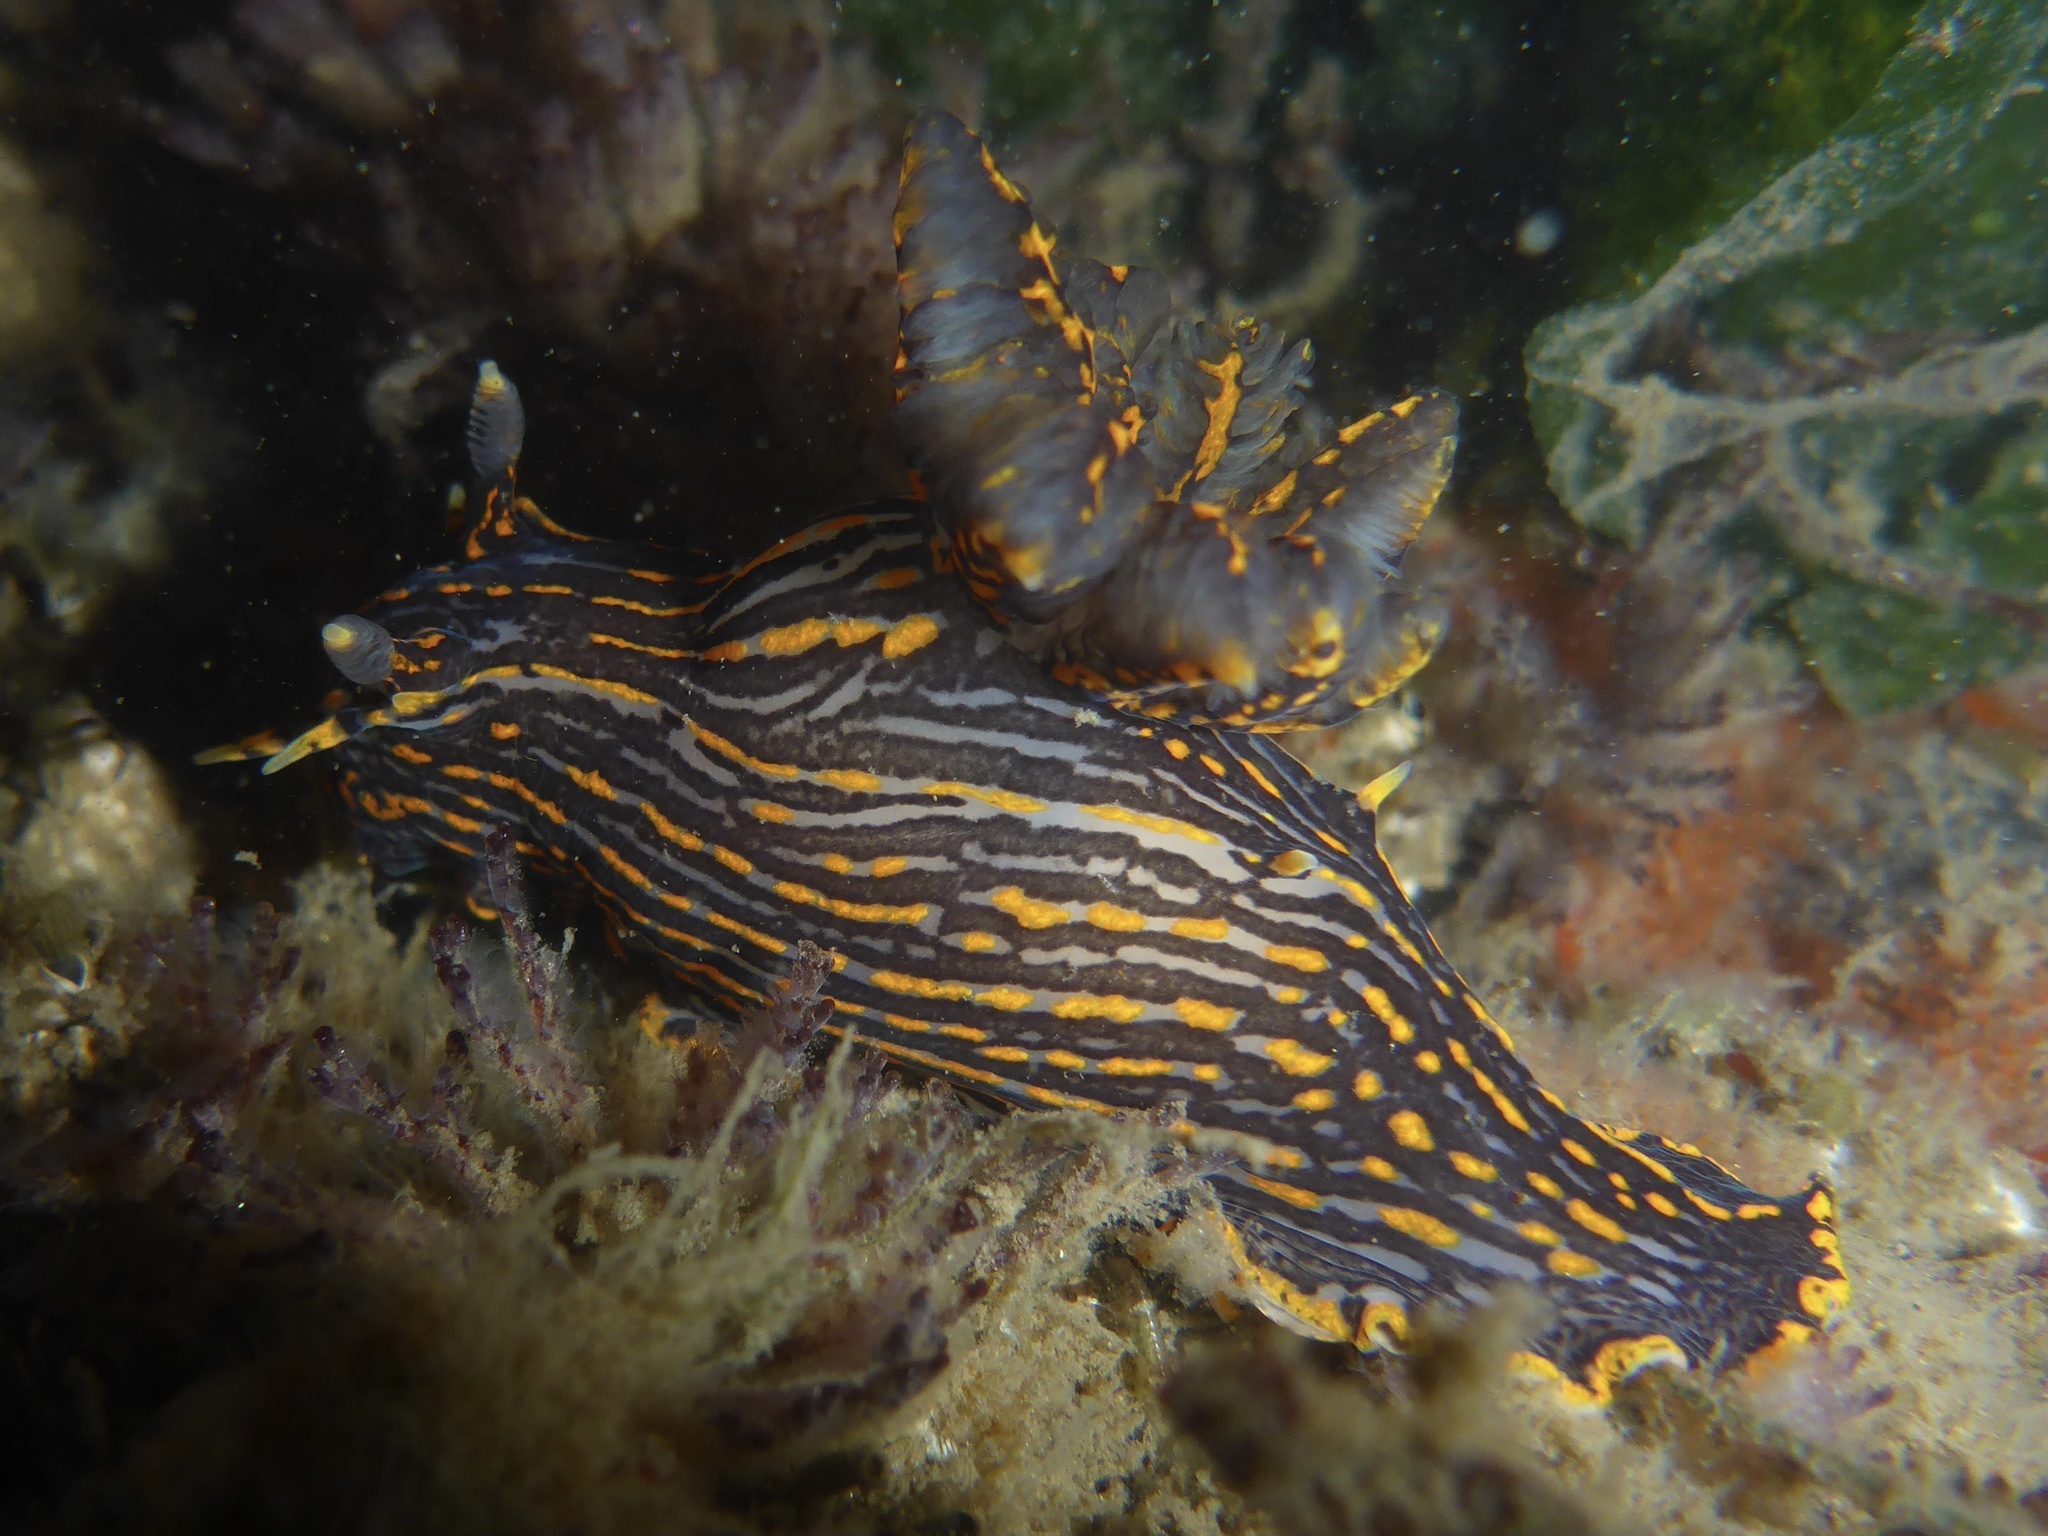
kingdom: Animalia
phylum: Mollusca
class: Gastropoda
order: Nudibranchia
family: Polyceridae
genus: Polycera
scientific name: Polycera atra
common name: Orange-spike polycera
